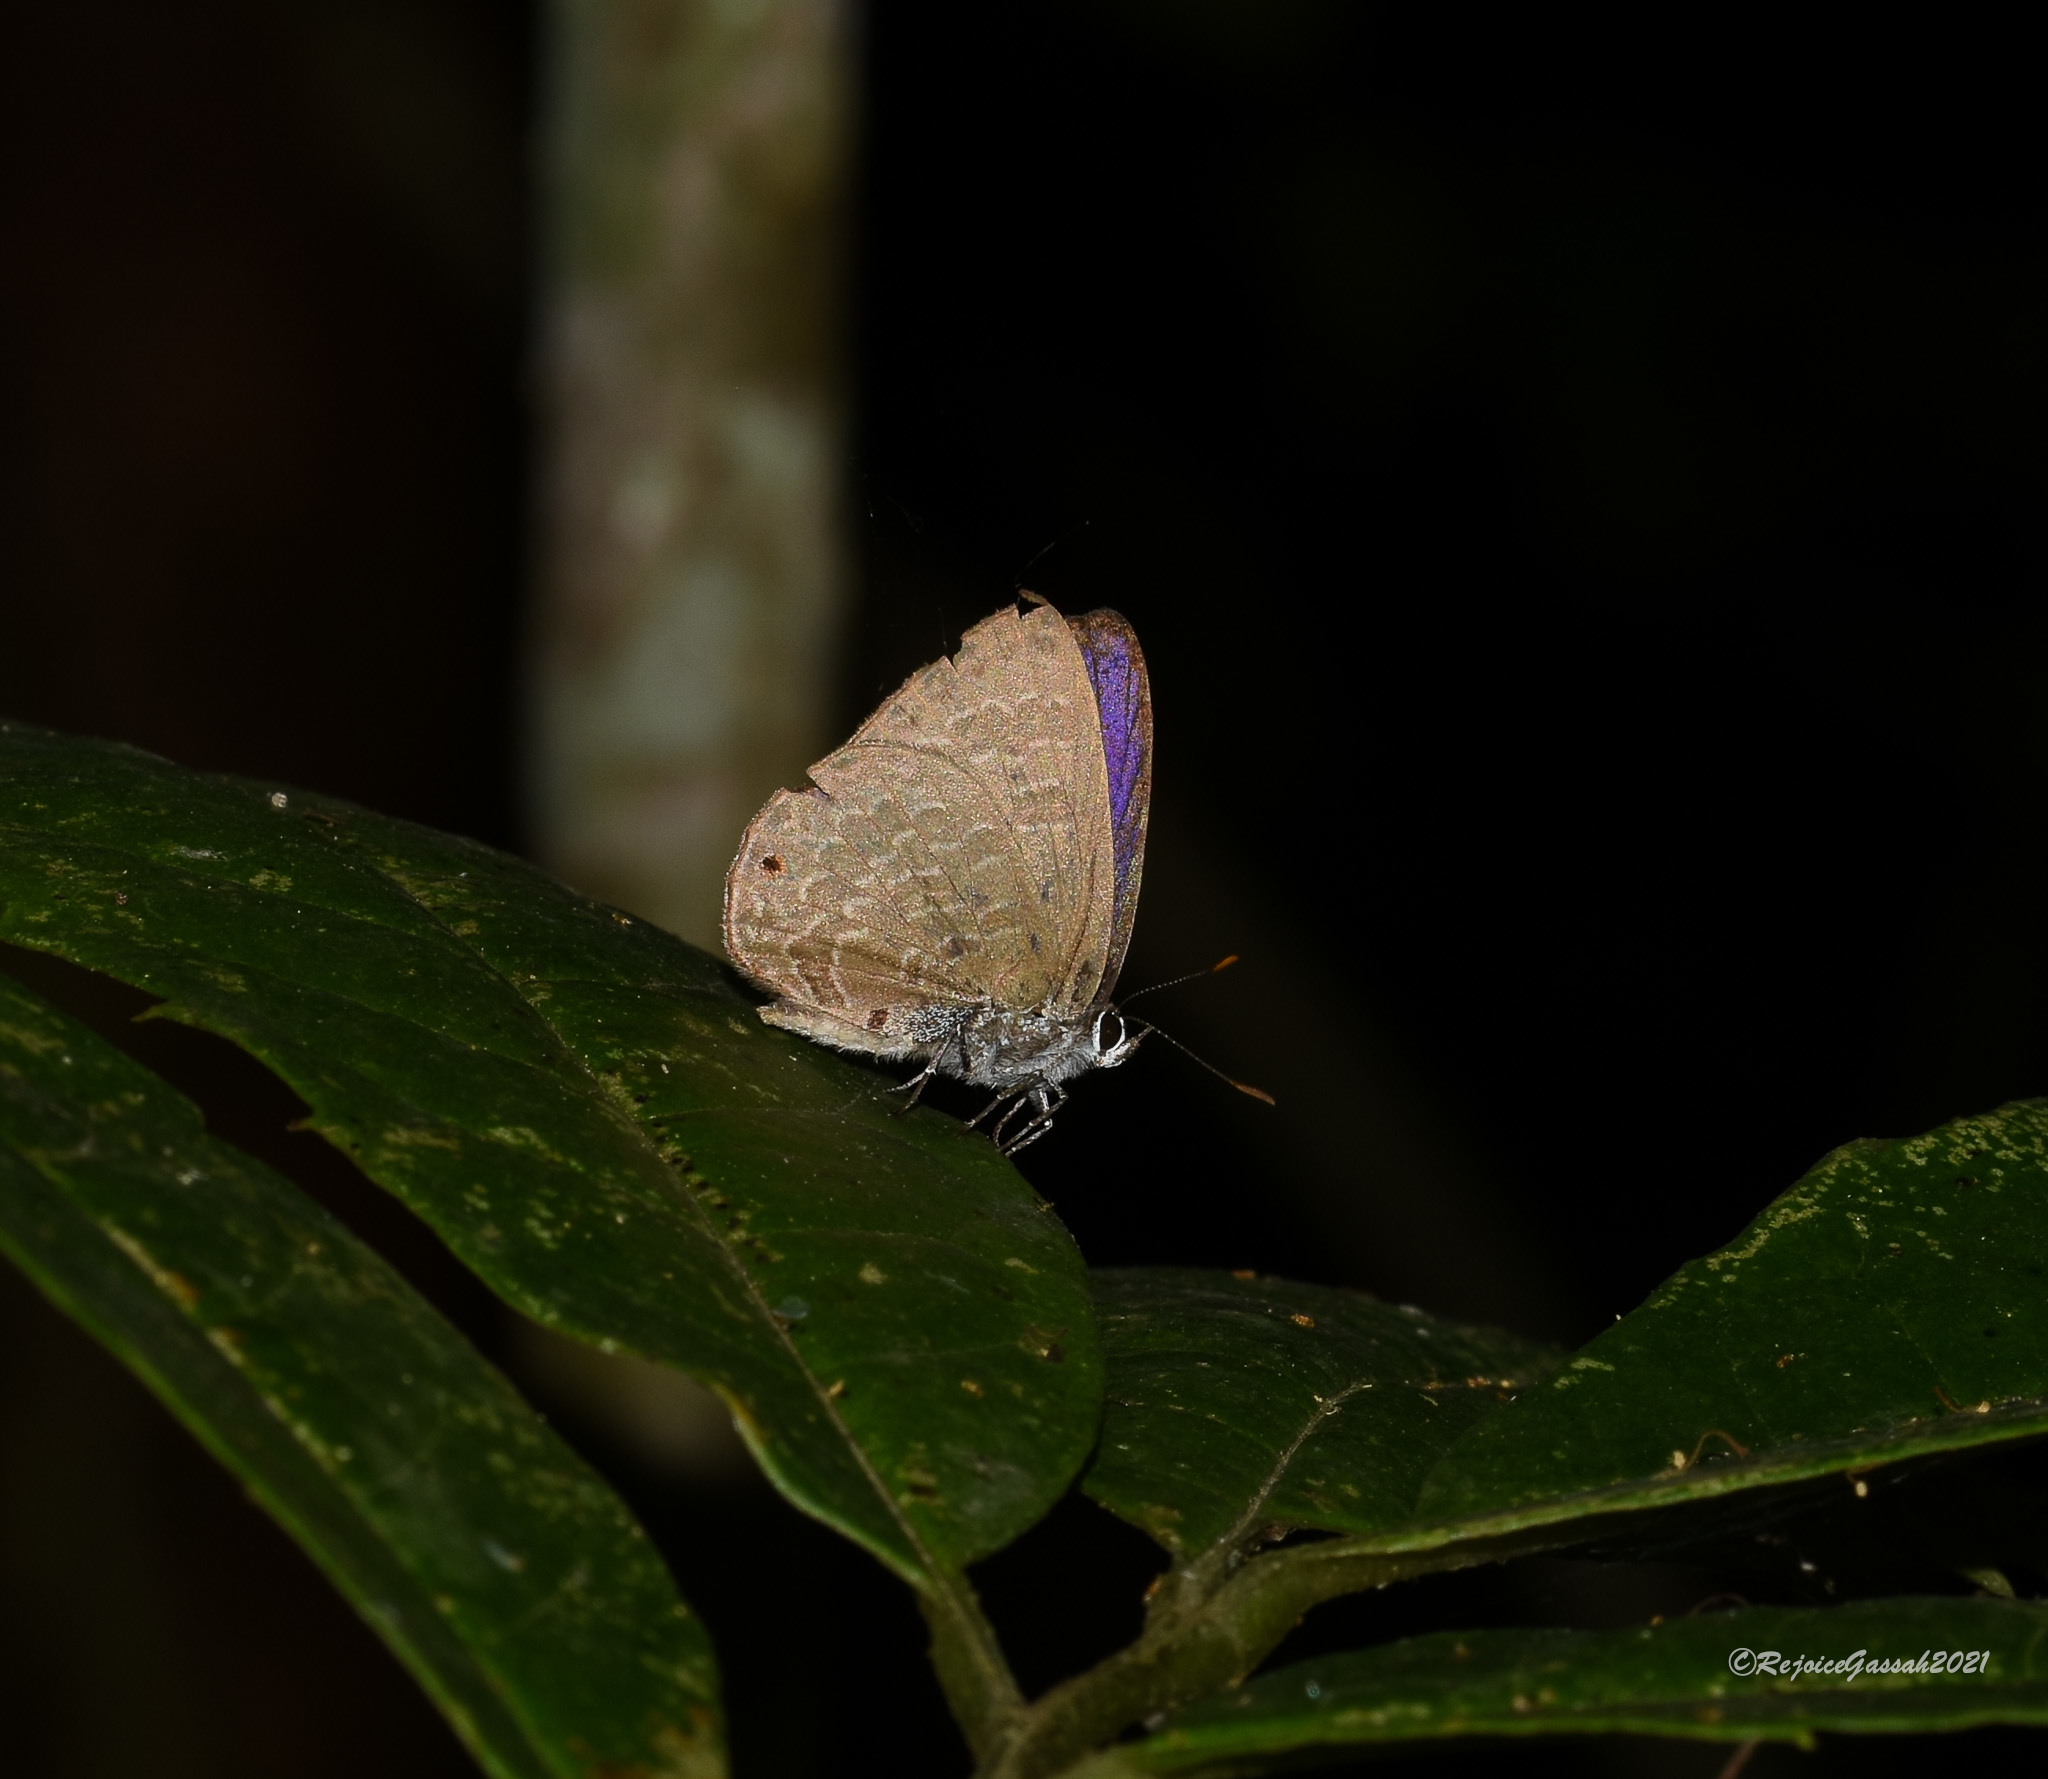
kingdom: Animalia
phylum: Arthropoda
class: Insecta
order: Lepidoptera
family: Lycaenidae
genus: Anthene
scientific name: Anthene emolus
